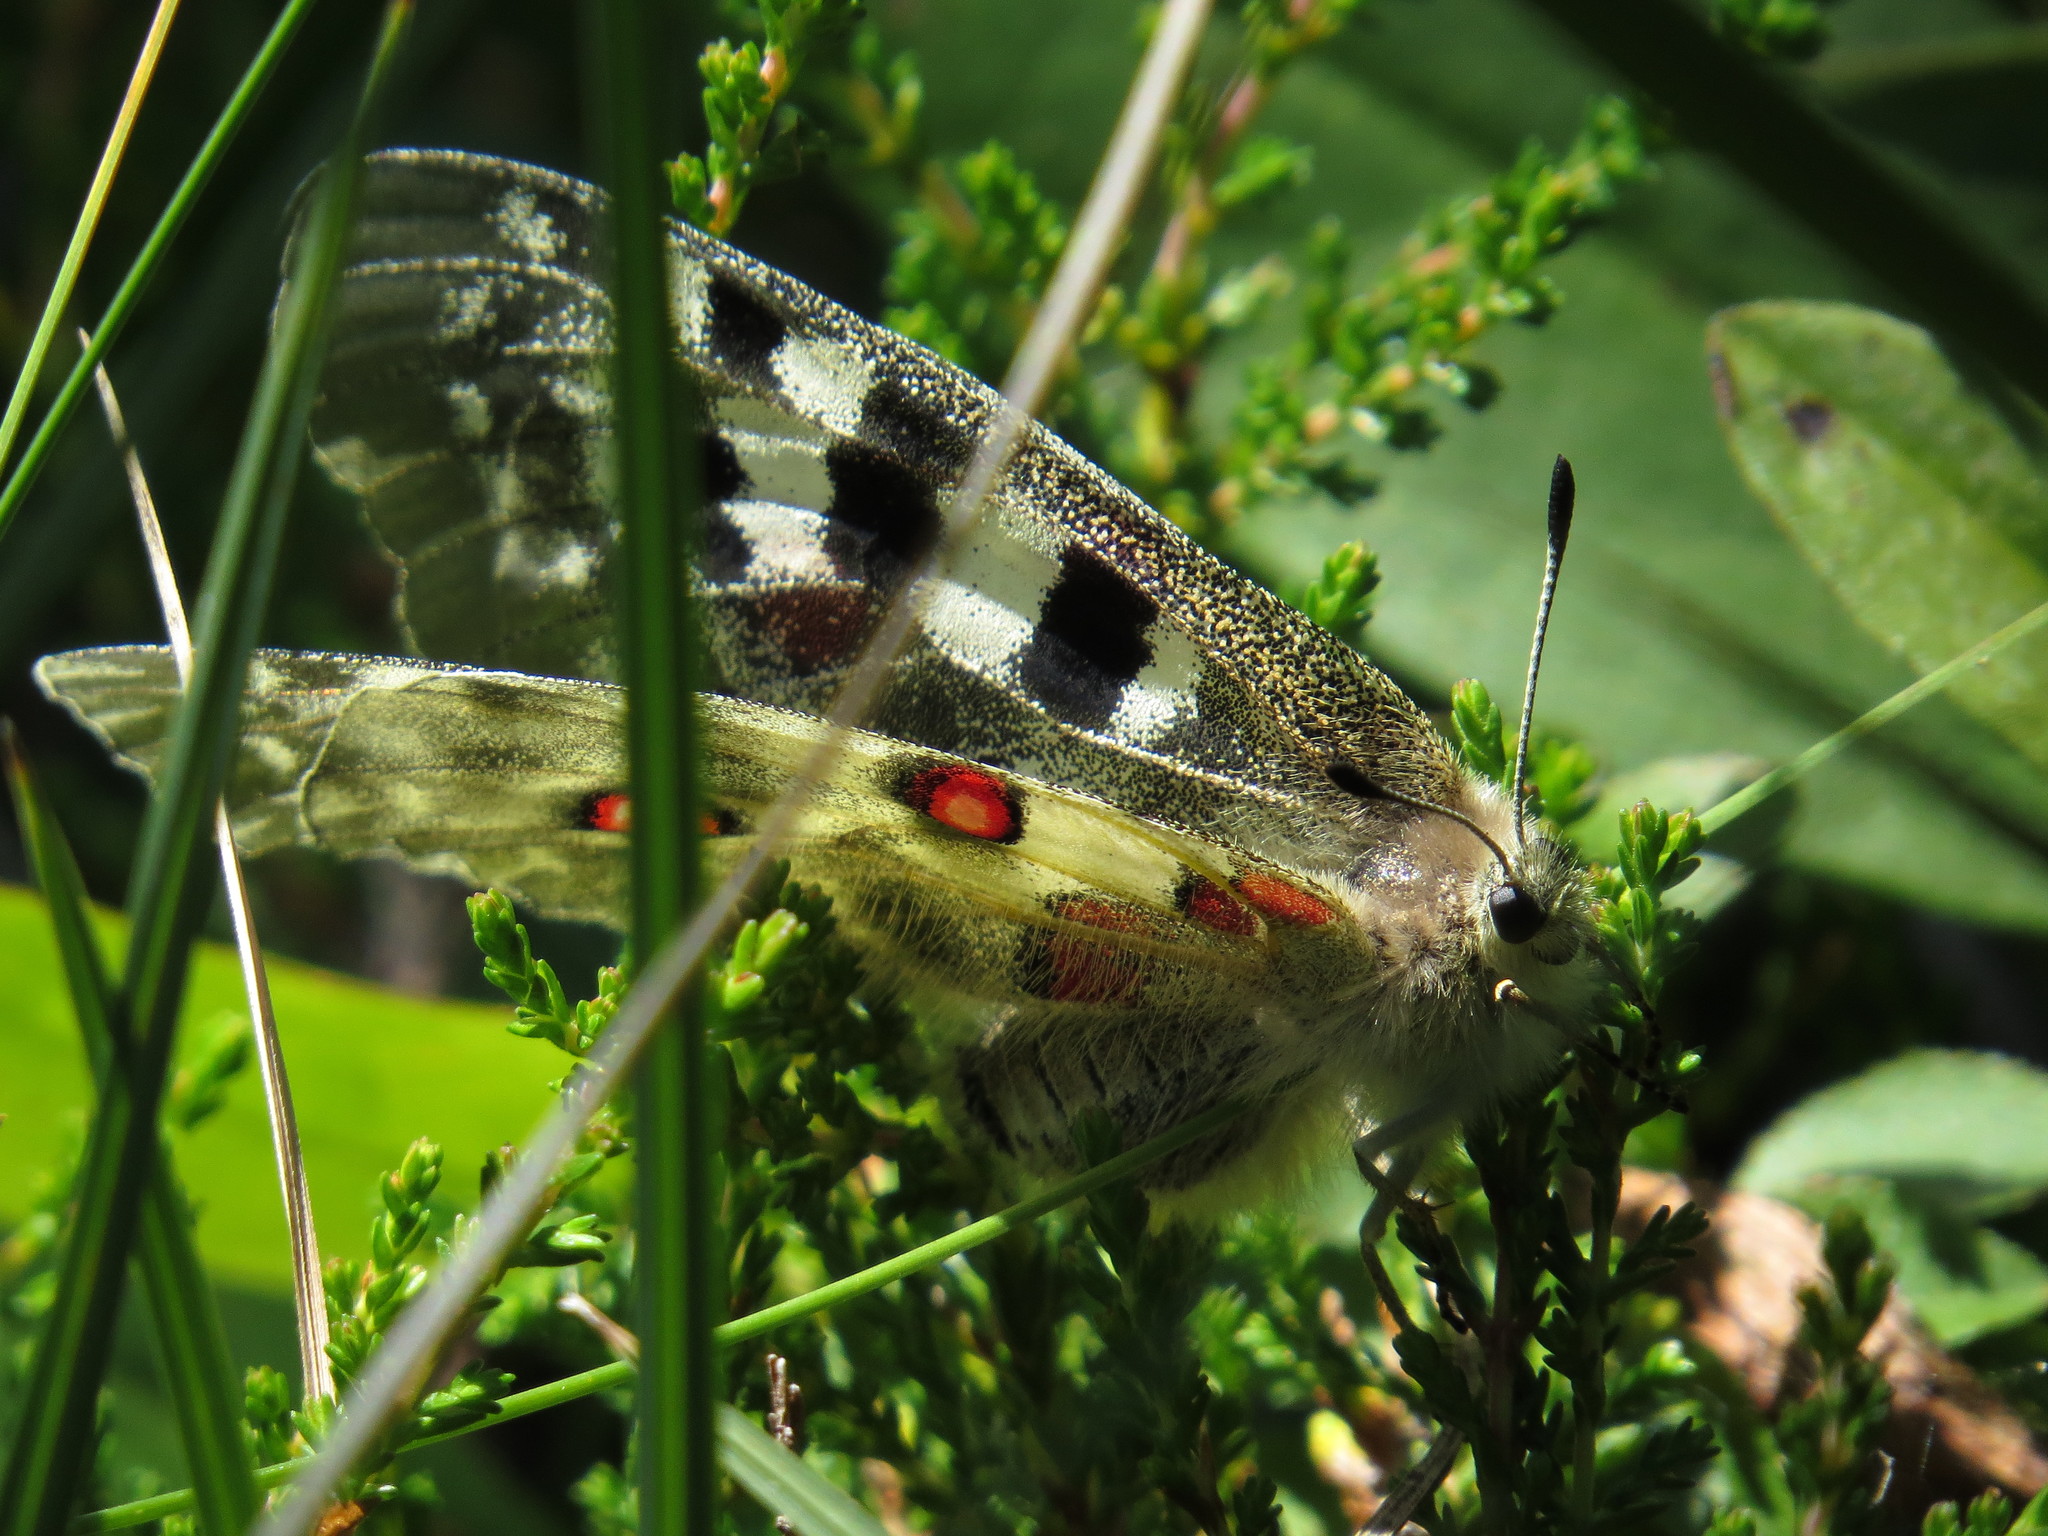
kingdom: Animalia
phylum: Arthropoda
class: Insecta
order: Lepidoptera
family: Papilionidae
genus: Parnassius
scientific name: Parnassius apollo
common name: Apollo
